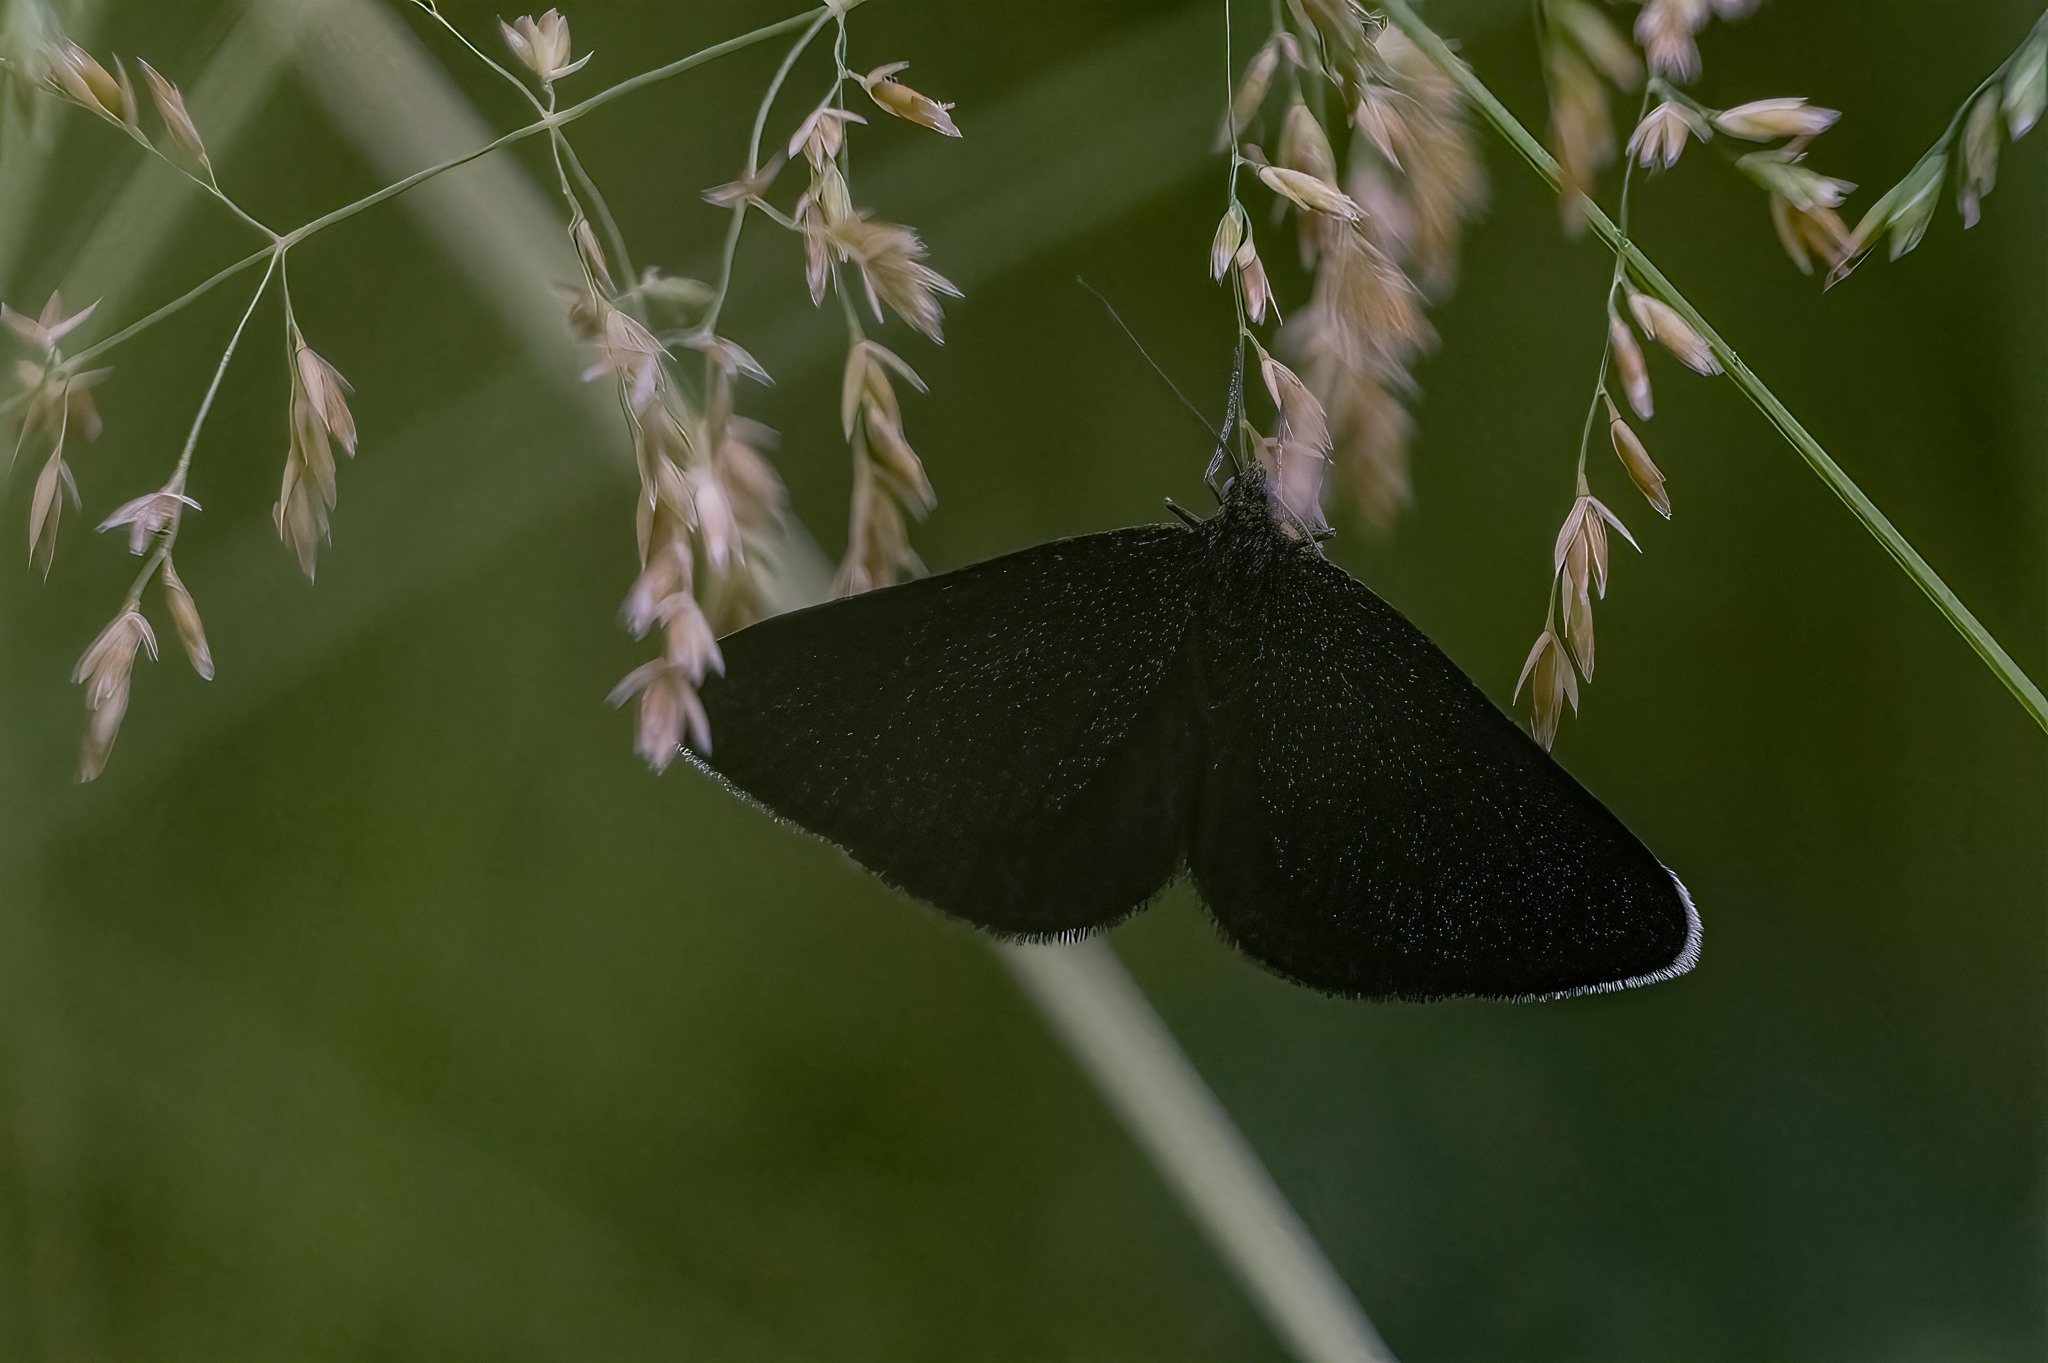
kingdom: Animalia
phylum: Arthropoda
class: Insecta
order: Lepidoptera
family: Geometridae
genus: Odezia
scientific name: Odezia atrata
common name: Chimney sweeper
